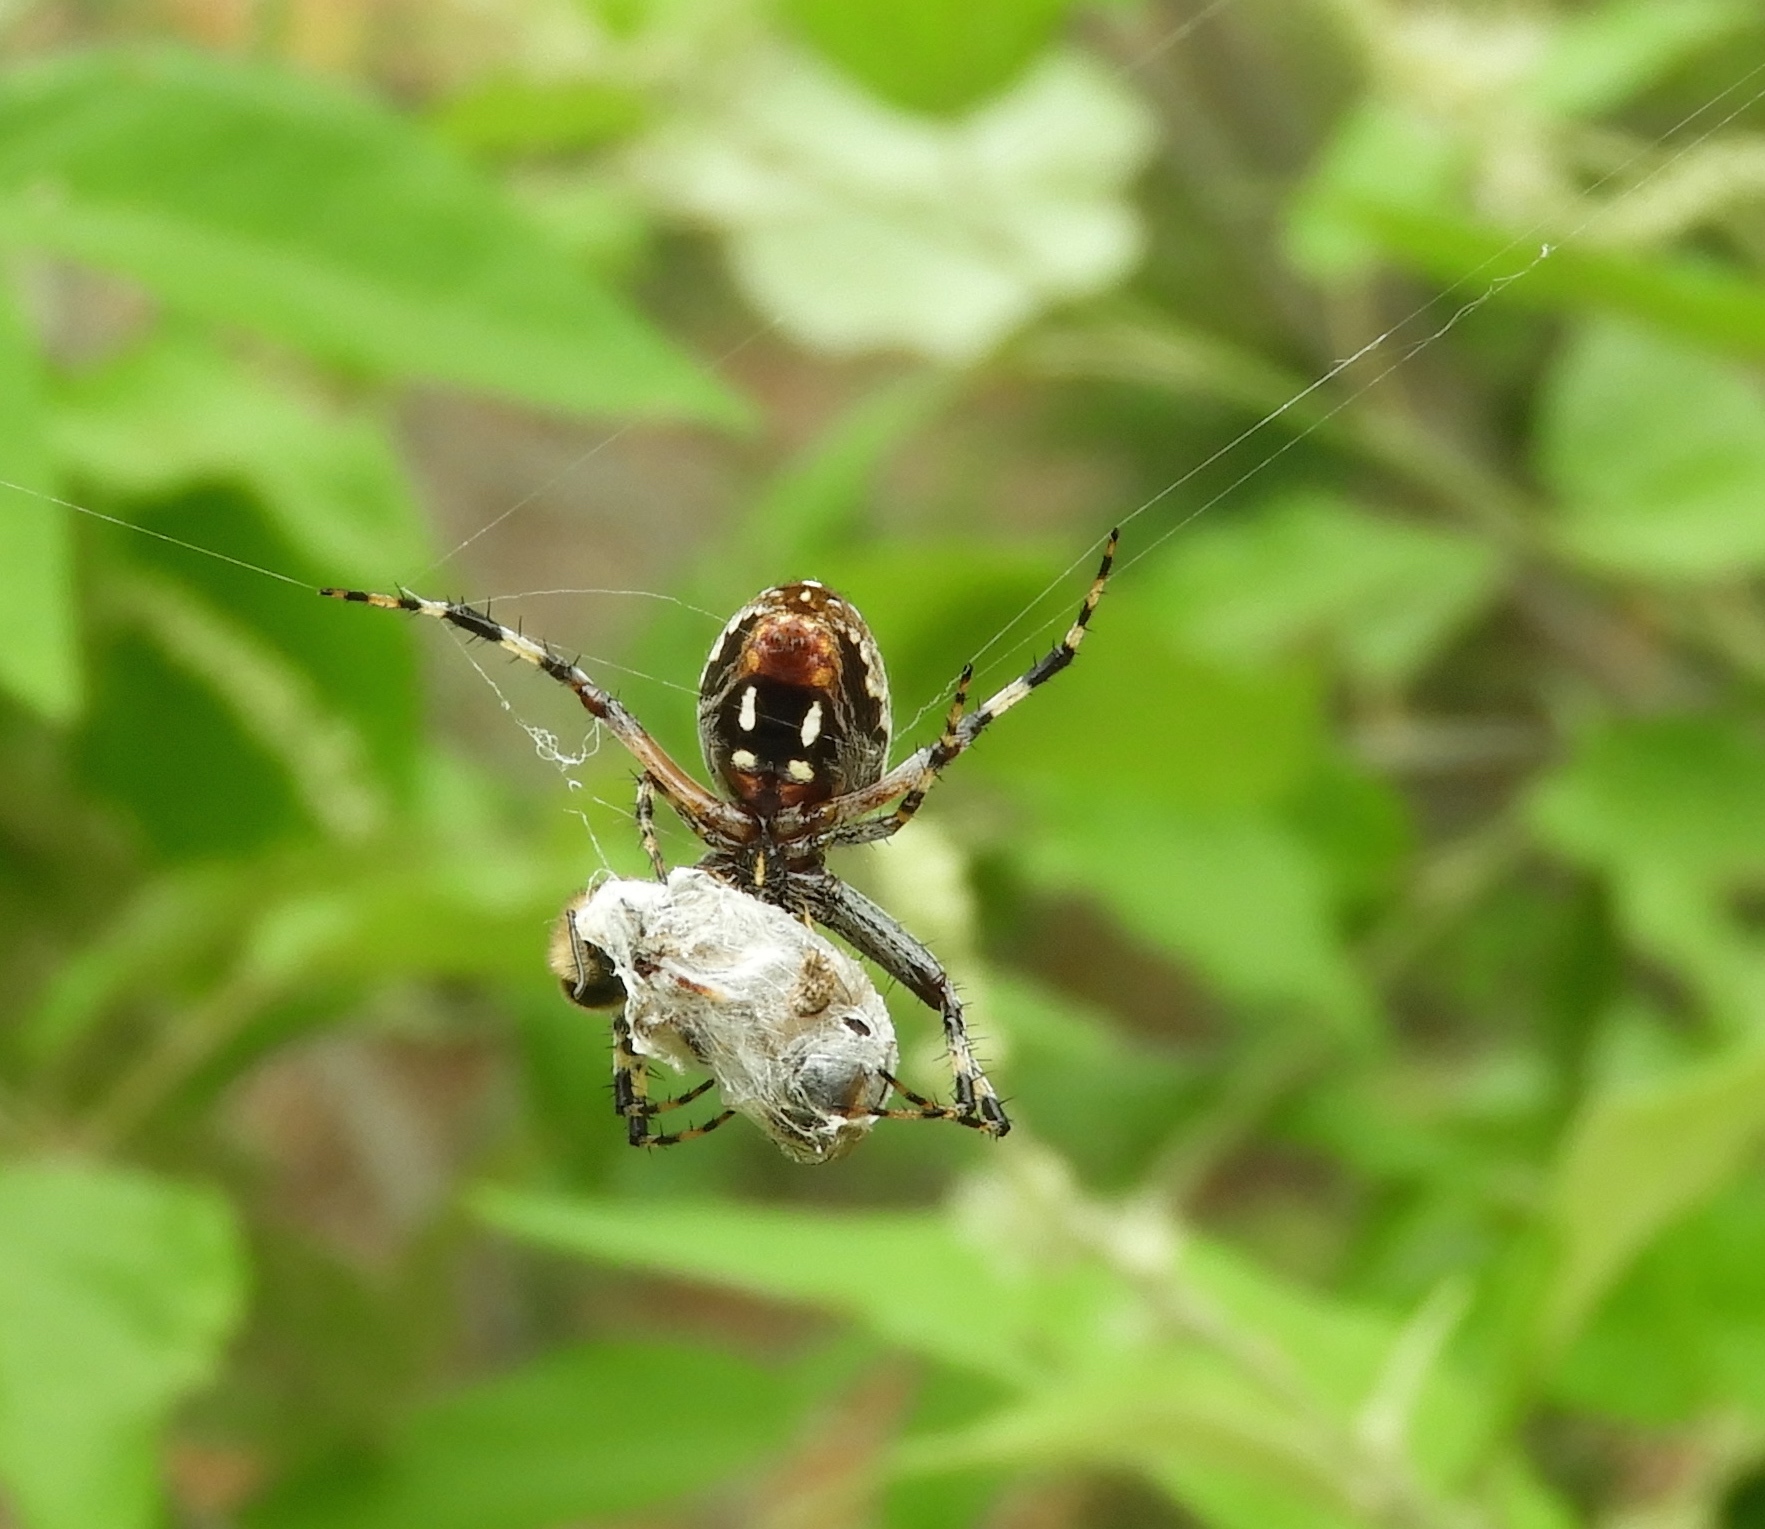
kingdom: Animalia
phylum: Arthropoda
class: Arachnida
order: Araneae
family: Araneidae
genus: Neoscona
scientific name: Neoscona
